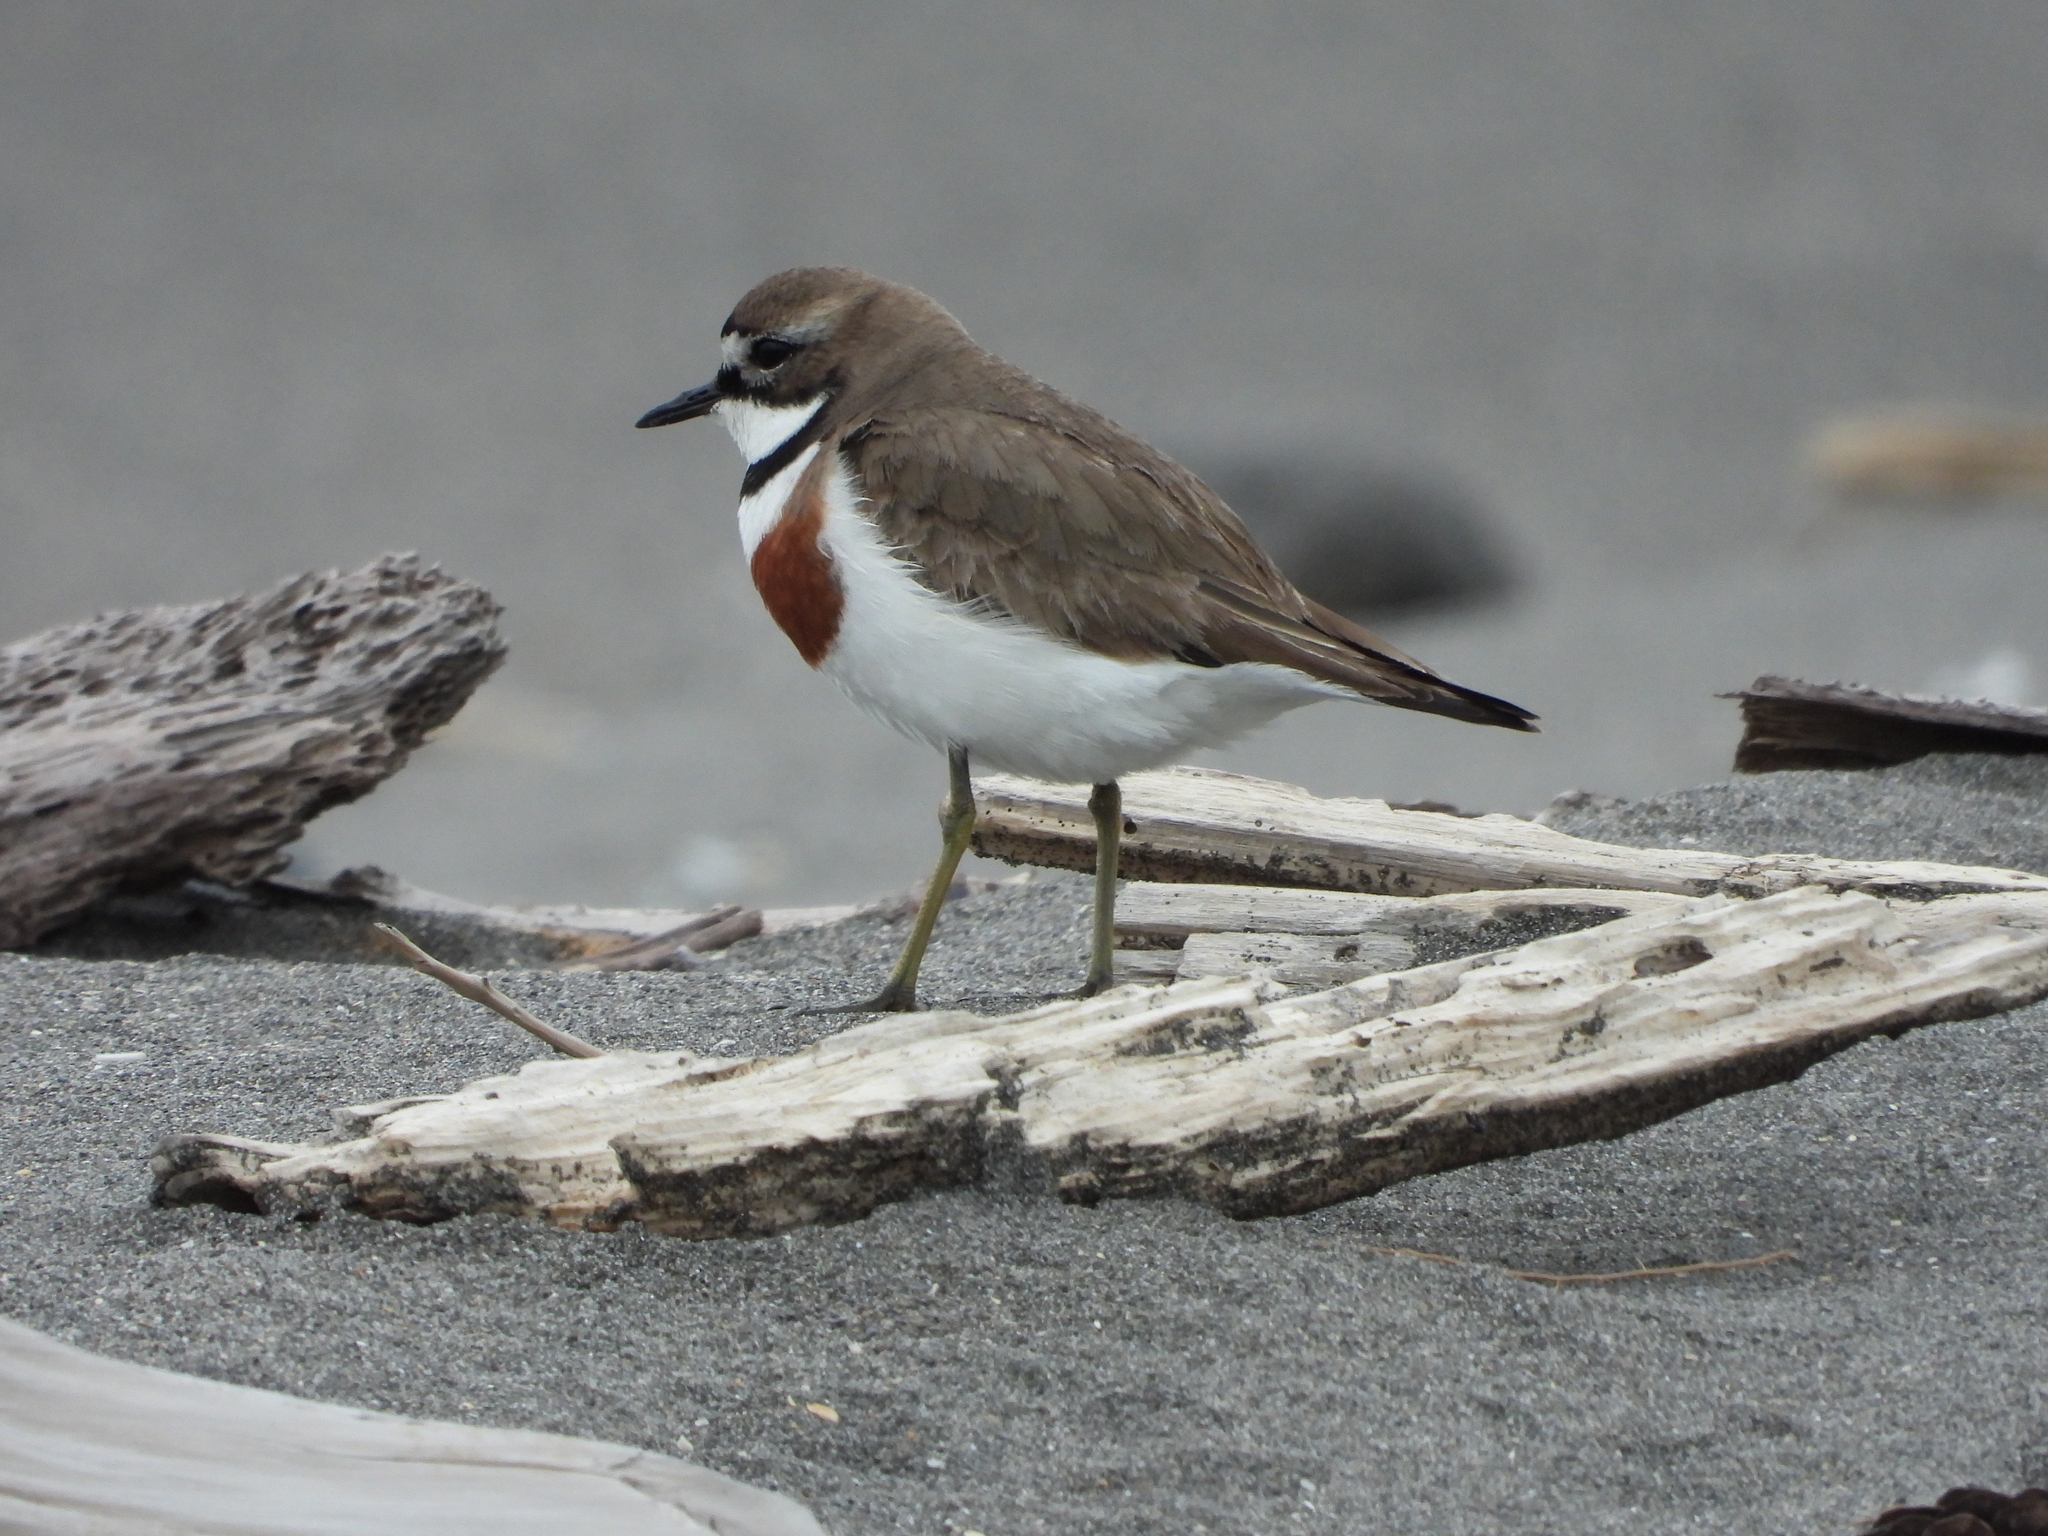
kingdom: Animalia
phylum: Chordata
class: Aves
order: Charadriiformes
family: Charadriidae
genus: Anarhynchus
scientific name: Anarhynchus
